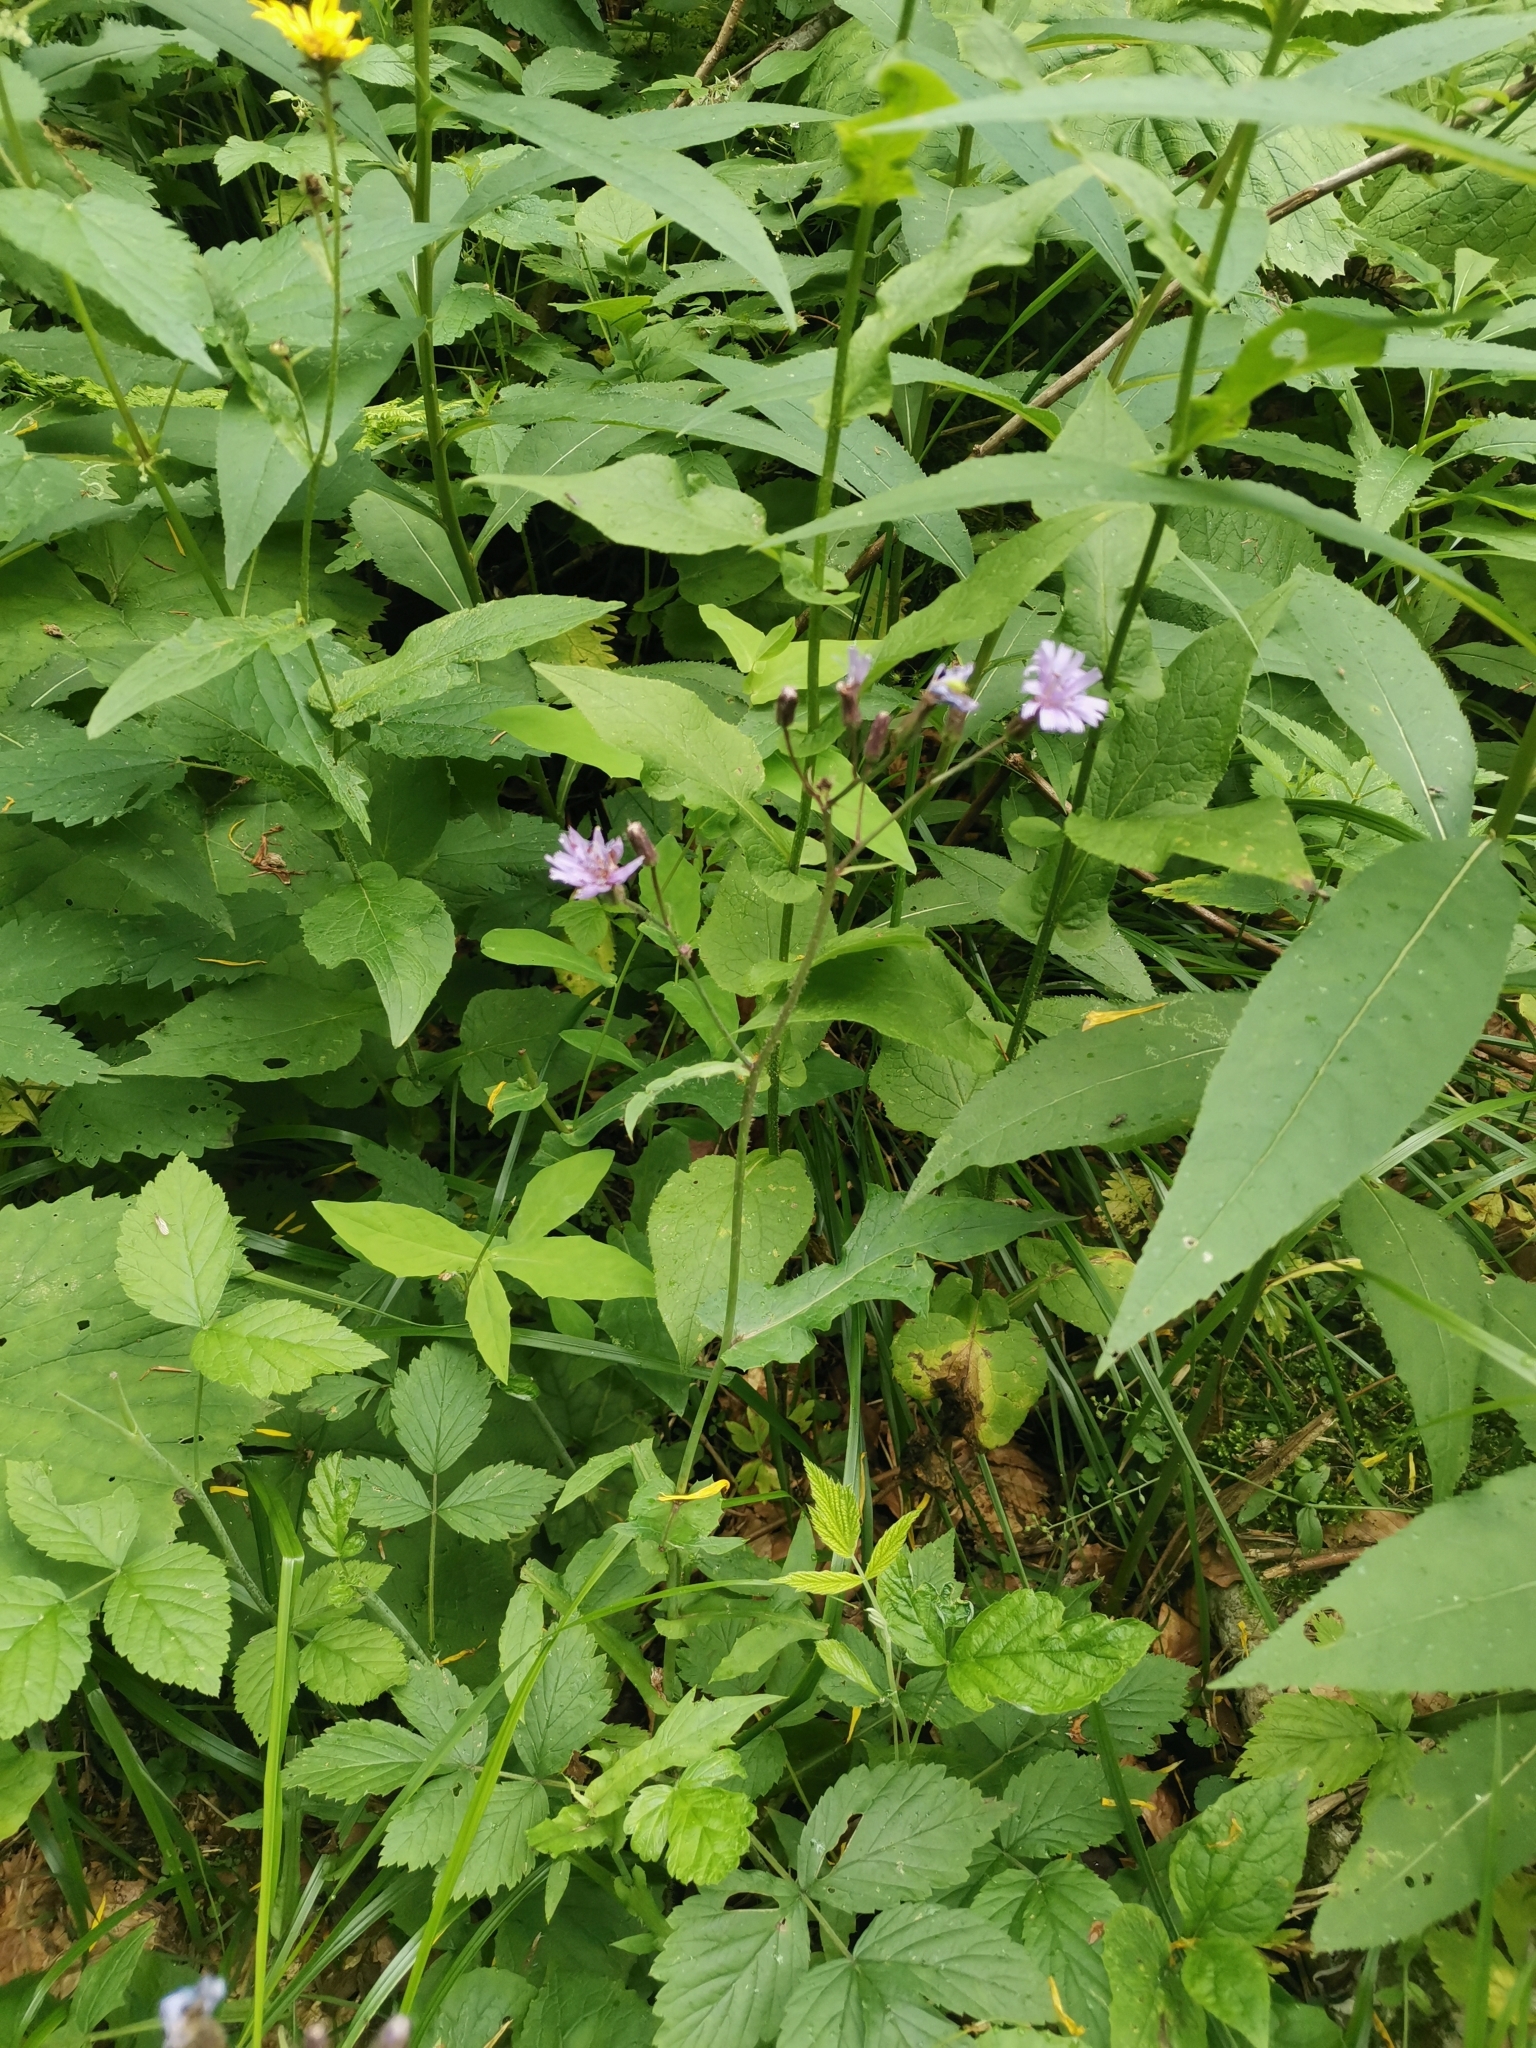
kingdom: Plantae
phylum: Tracheophyta
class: Magnoliopsida
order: Asterales
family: Asteraceae
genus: Cicerbita
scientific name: Cicerbita alpina
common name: Alpine blue-sow-thistle
